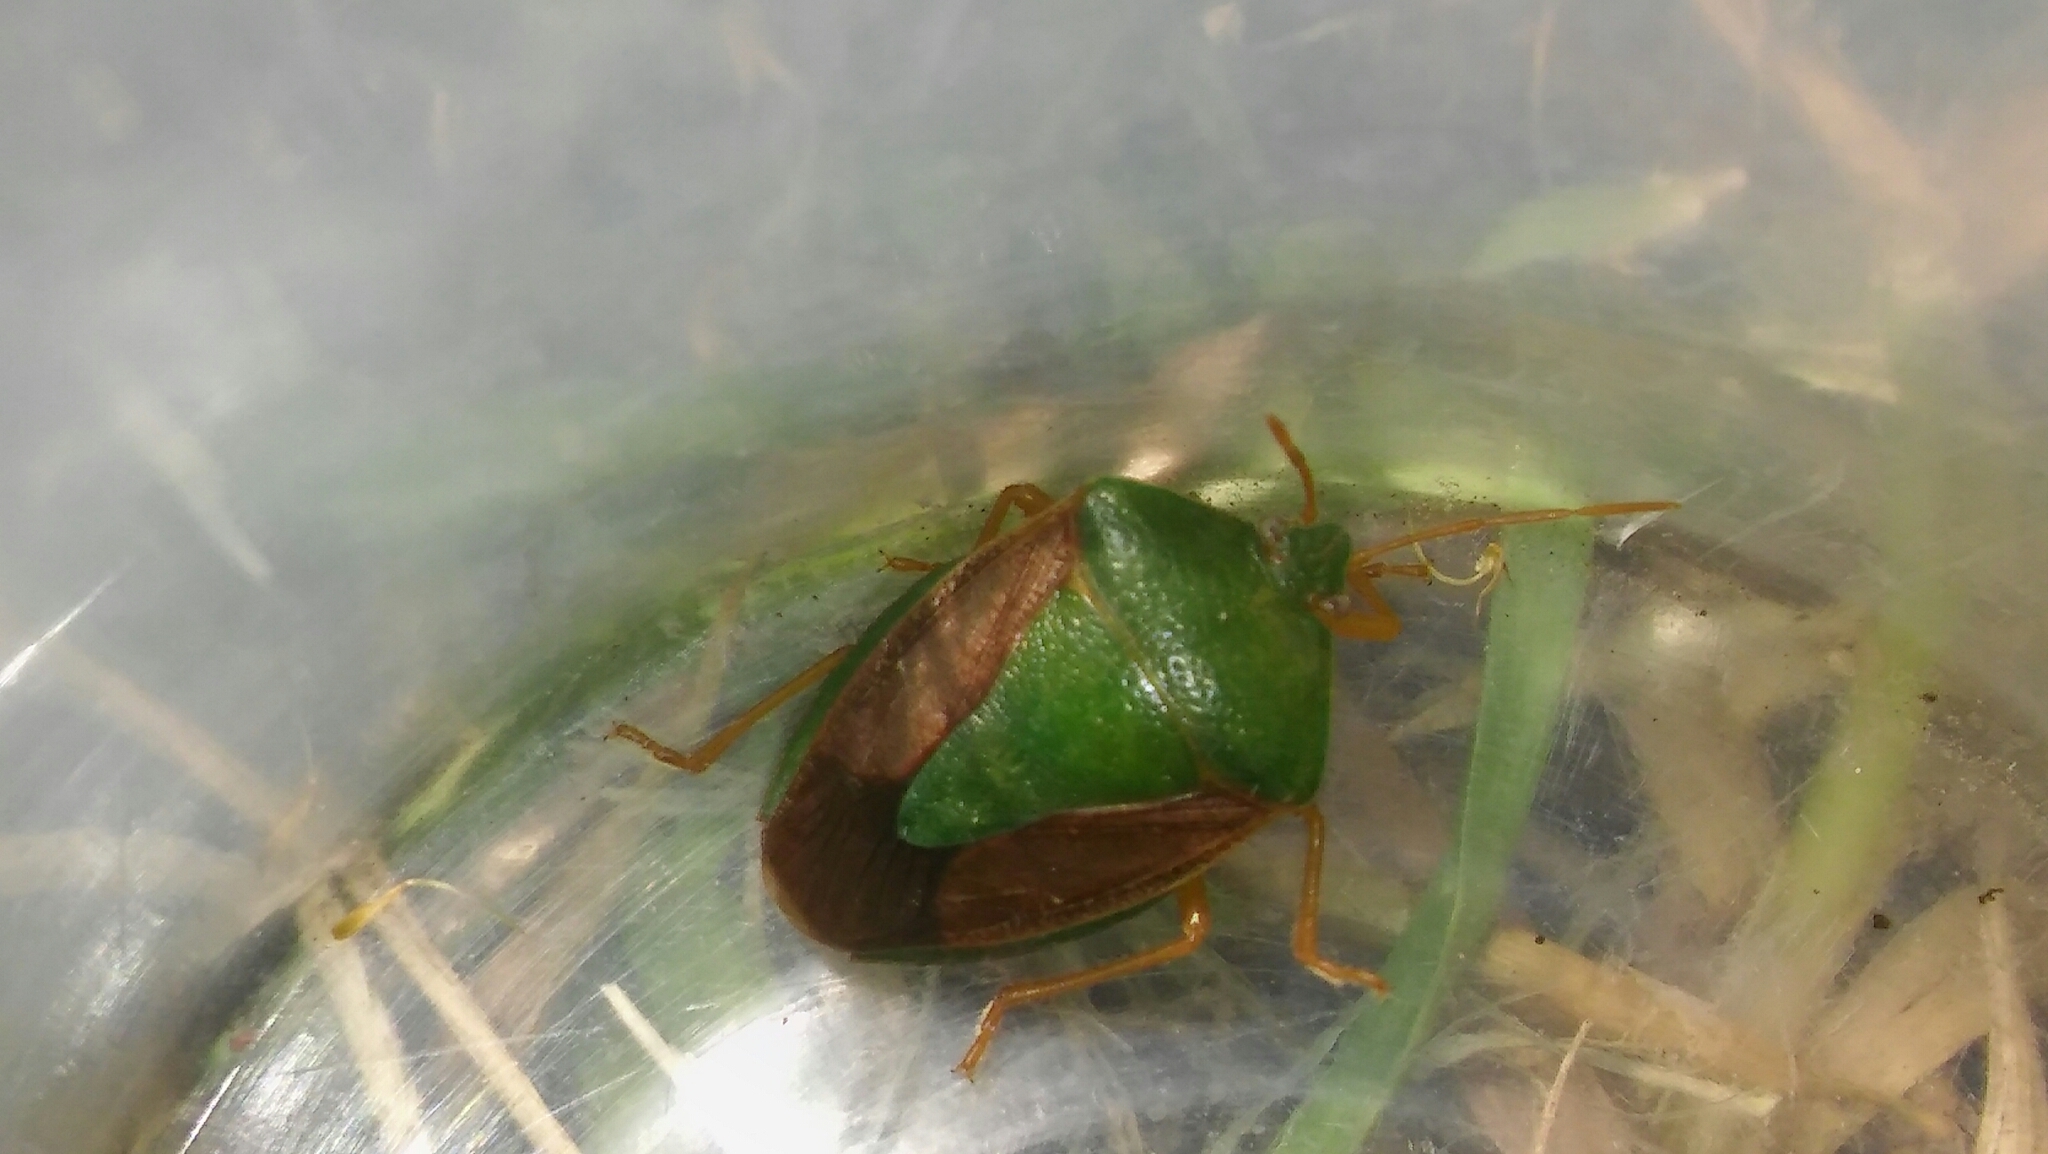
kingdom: Animalia
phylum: Arthropoda
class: Insecta
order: Hemiptera
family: Pentatomidae
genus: Edessa
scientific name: Edessa meditabunda
